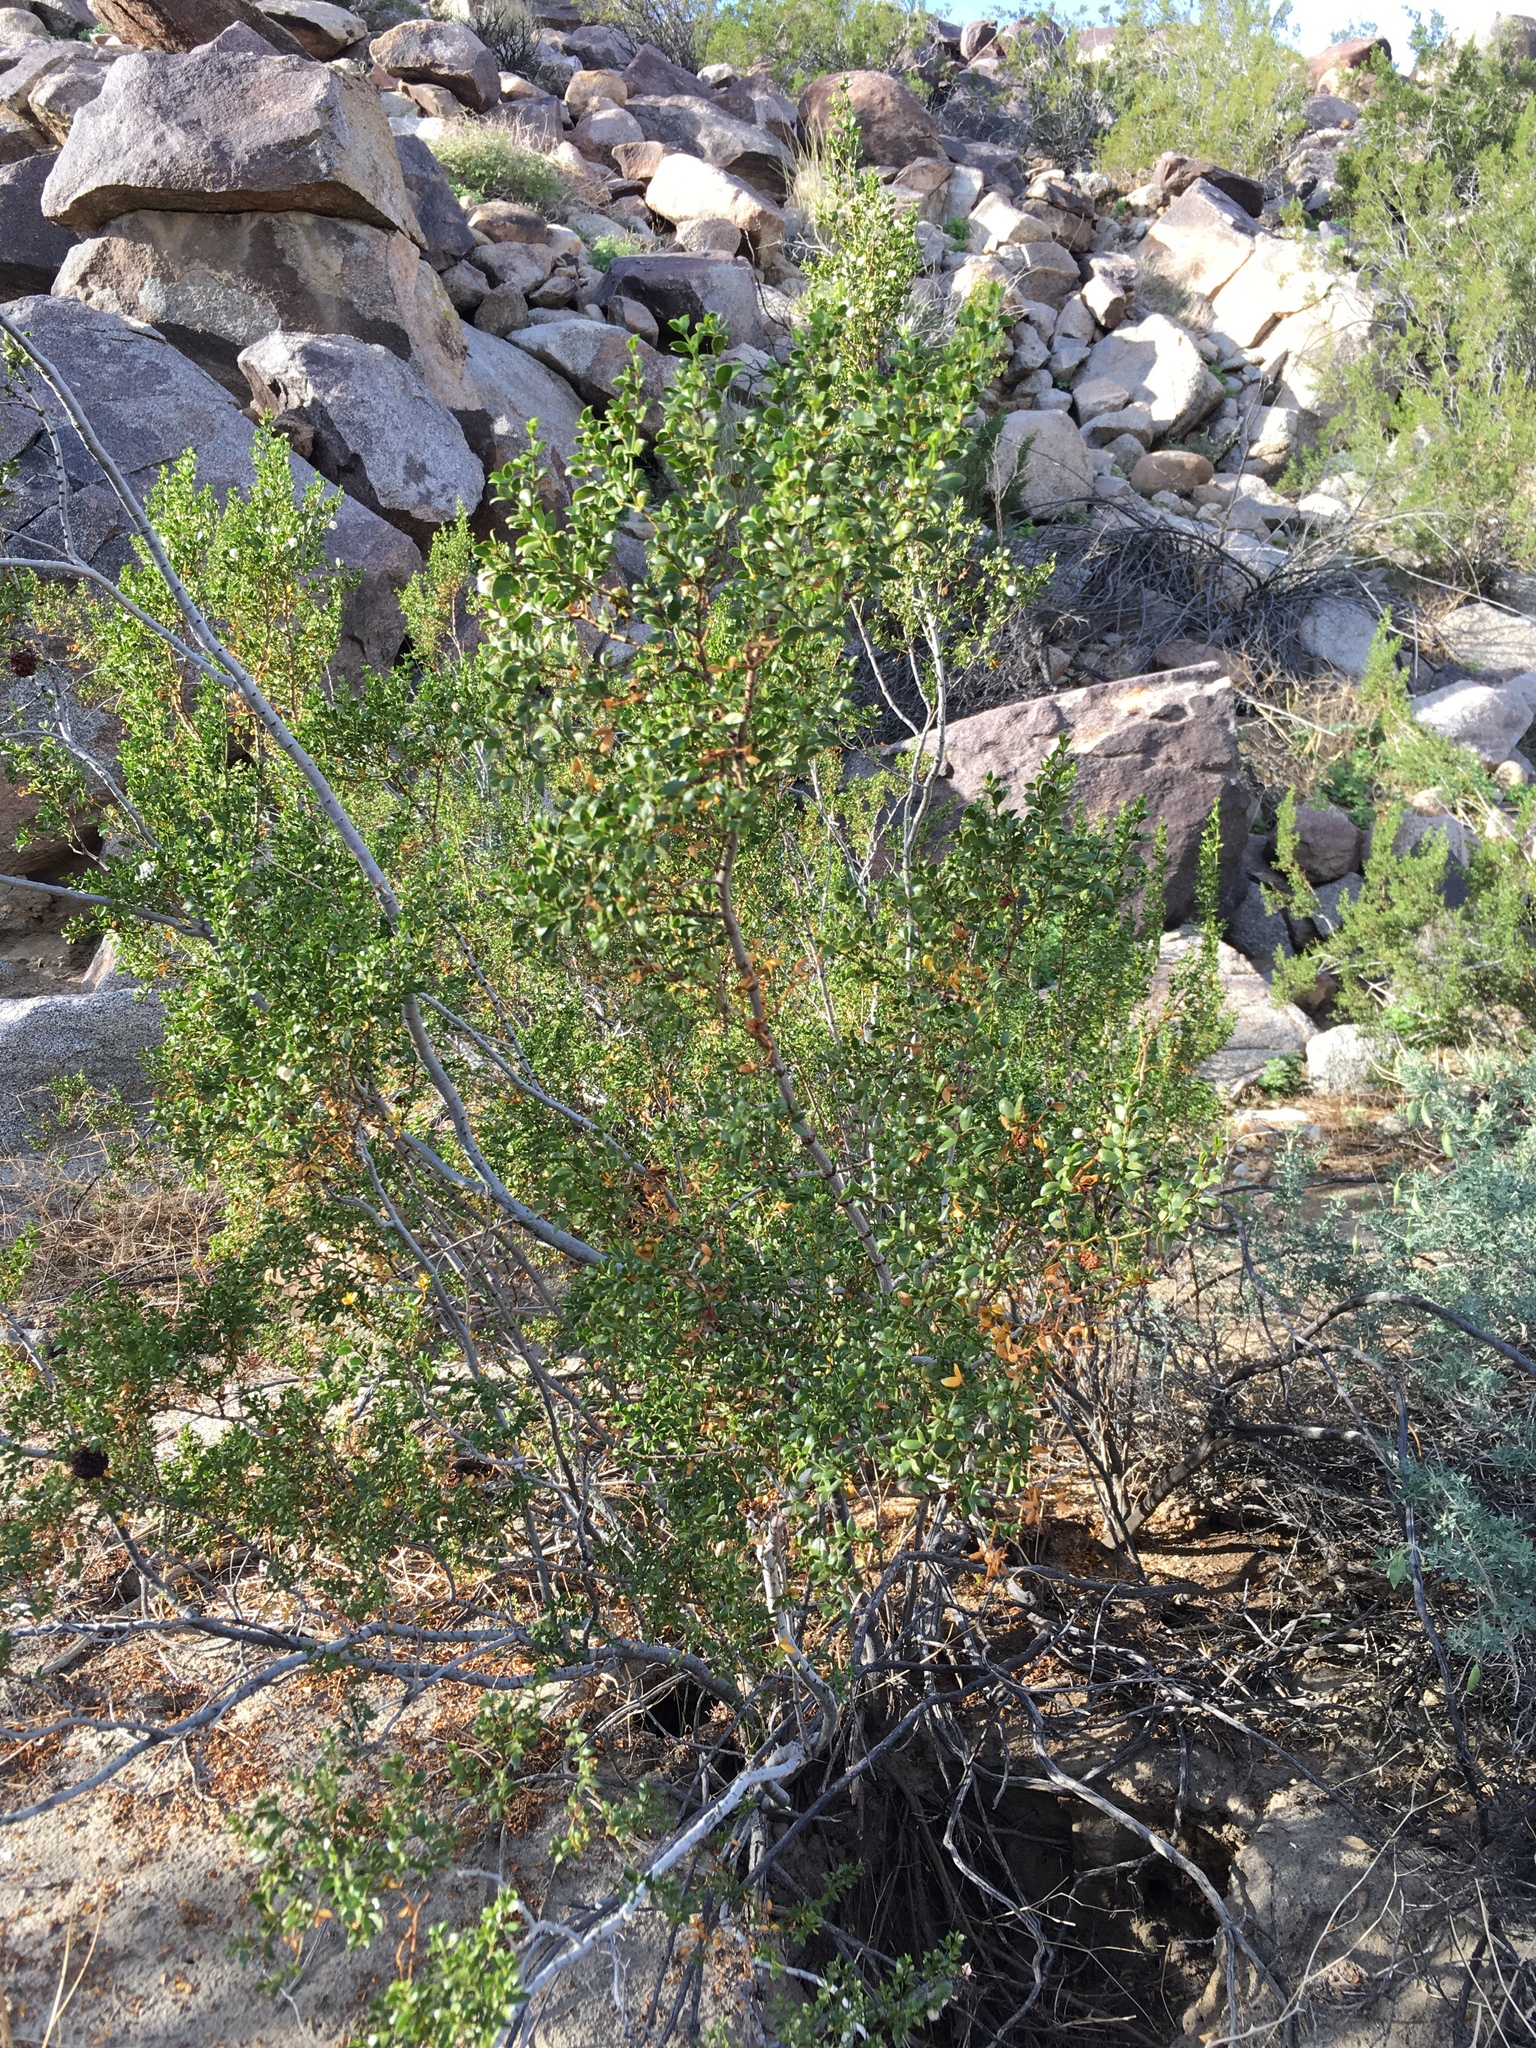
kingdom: Animalia
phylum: Arthropoda
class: Insecta
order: Diptera
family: Cecidomyiidae
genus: Asphondylia
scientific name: Asphondylia auripila
